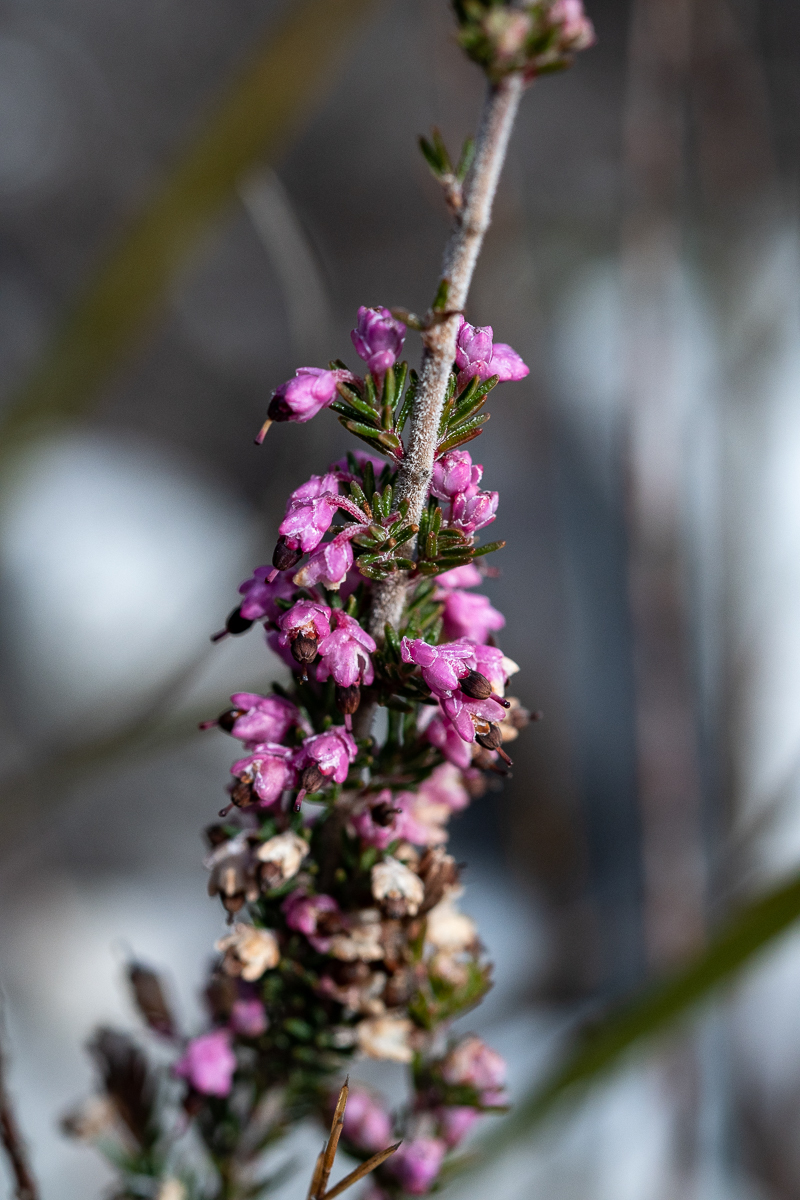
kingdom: Plantae
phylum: Tracheophyta
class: Magnoliopsida
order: Ericales
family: Ericaceae
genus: Erica
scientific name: Erica placentiflora
